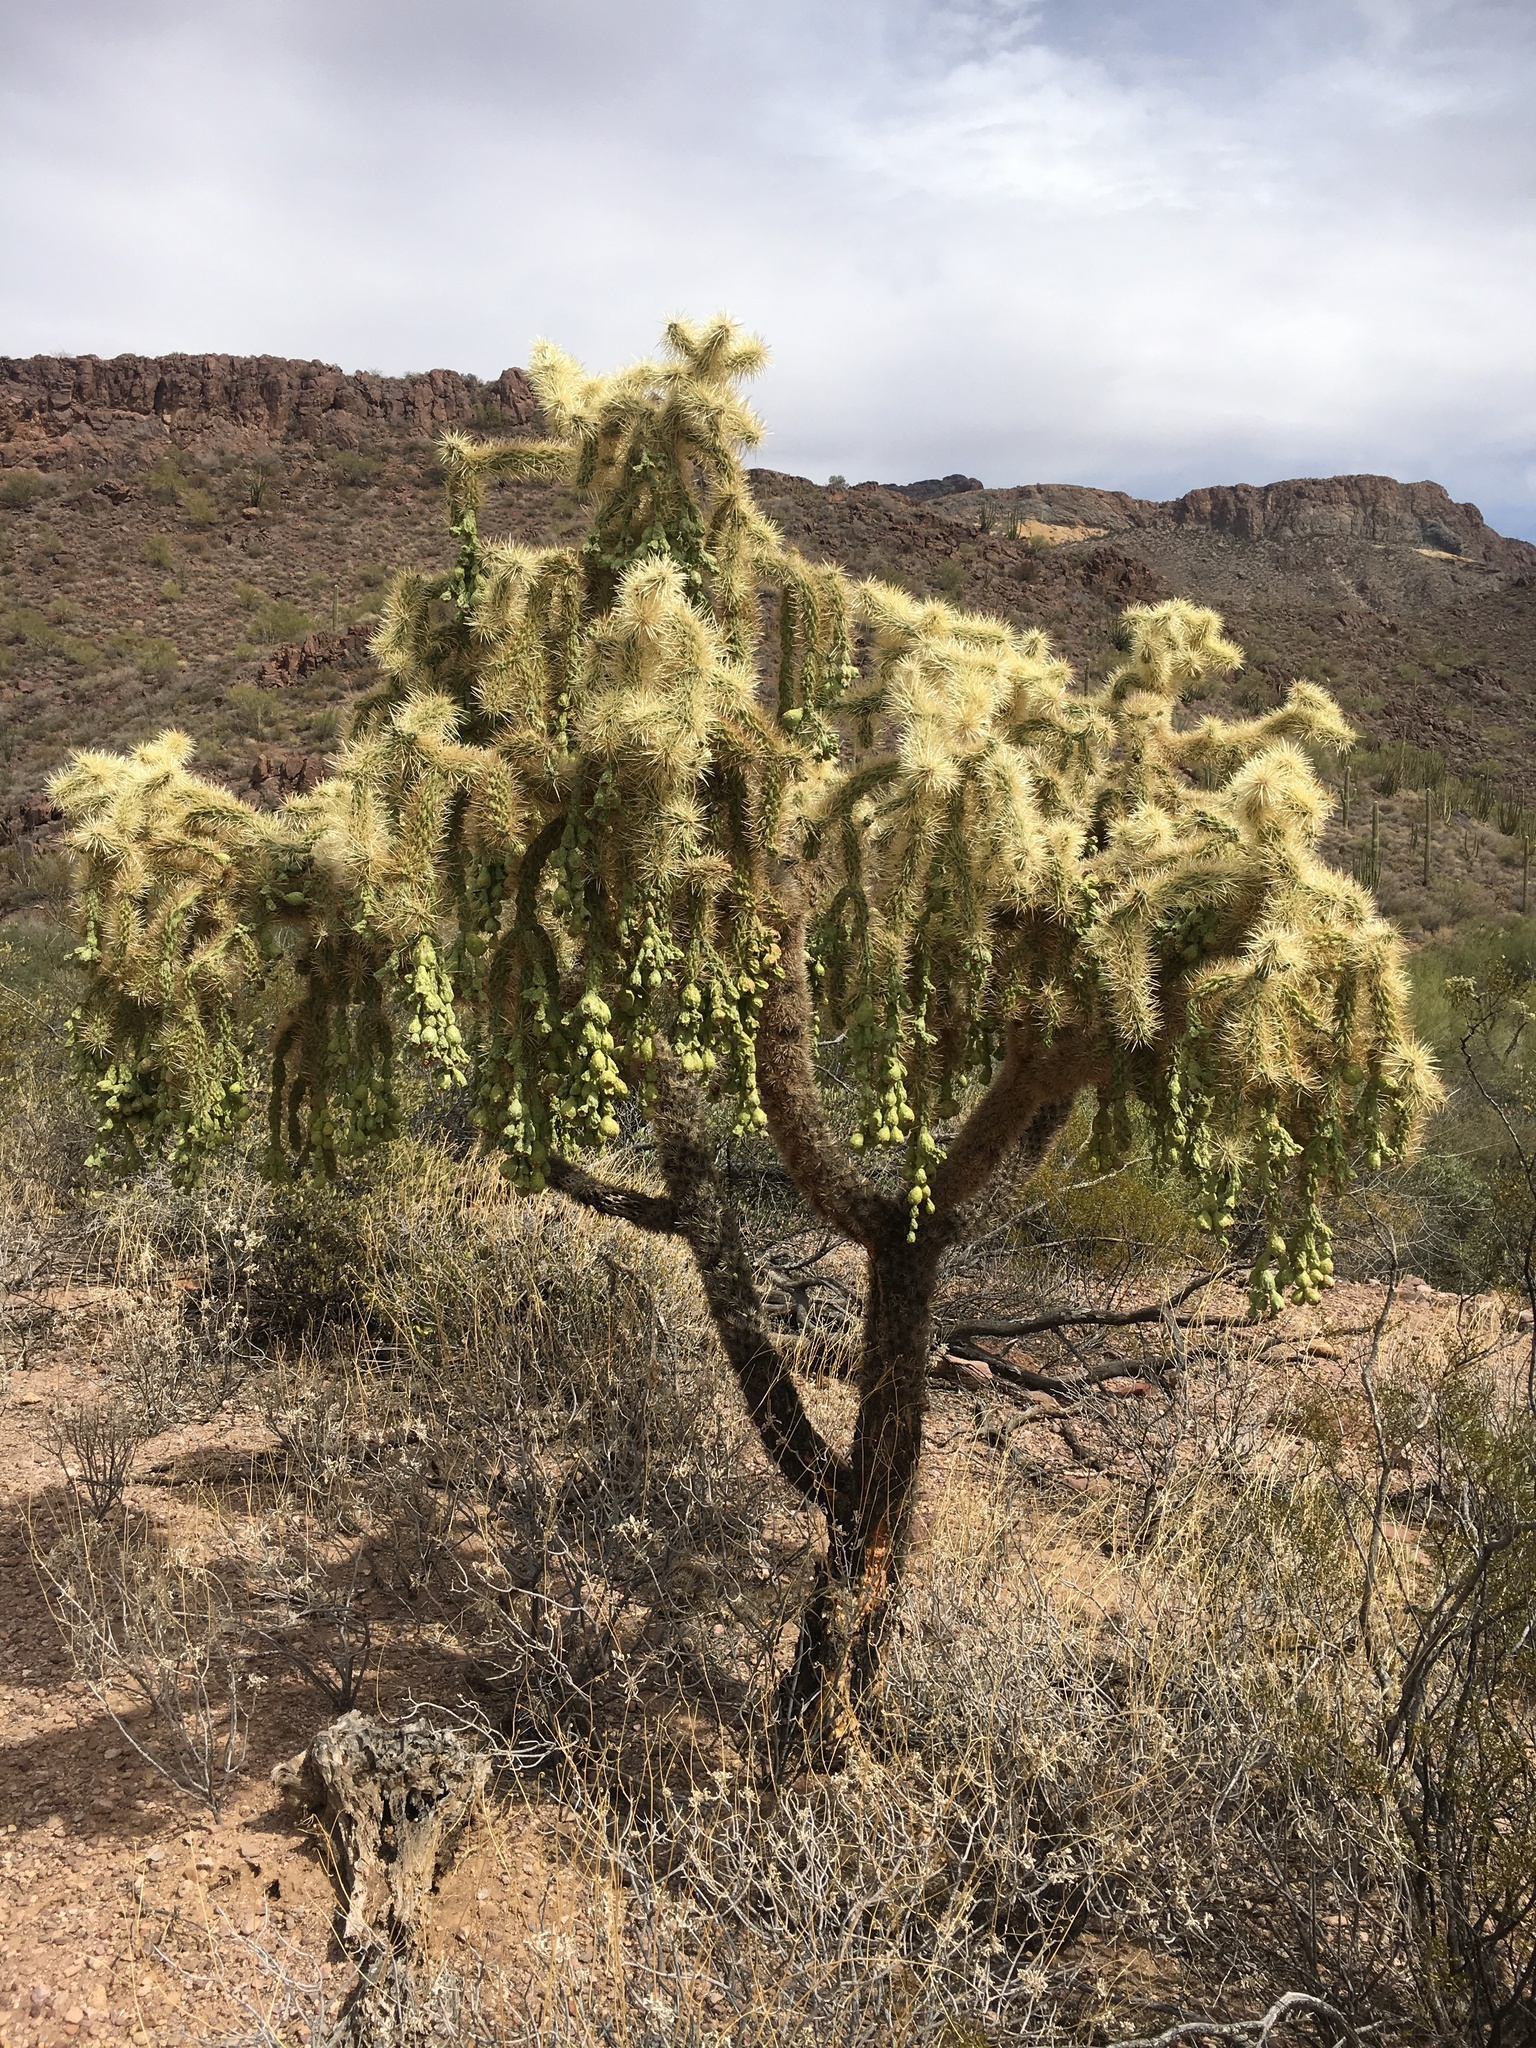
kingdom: Plantae
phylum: Tracheophyta
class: Magnoliopsida
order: Caryophyllales
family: Cactaceae
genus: Cylindropuntia
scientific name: Cylindropuntia fulgida
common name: Jumping cholla
